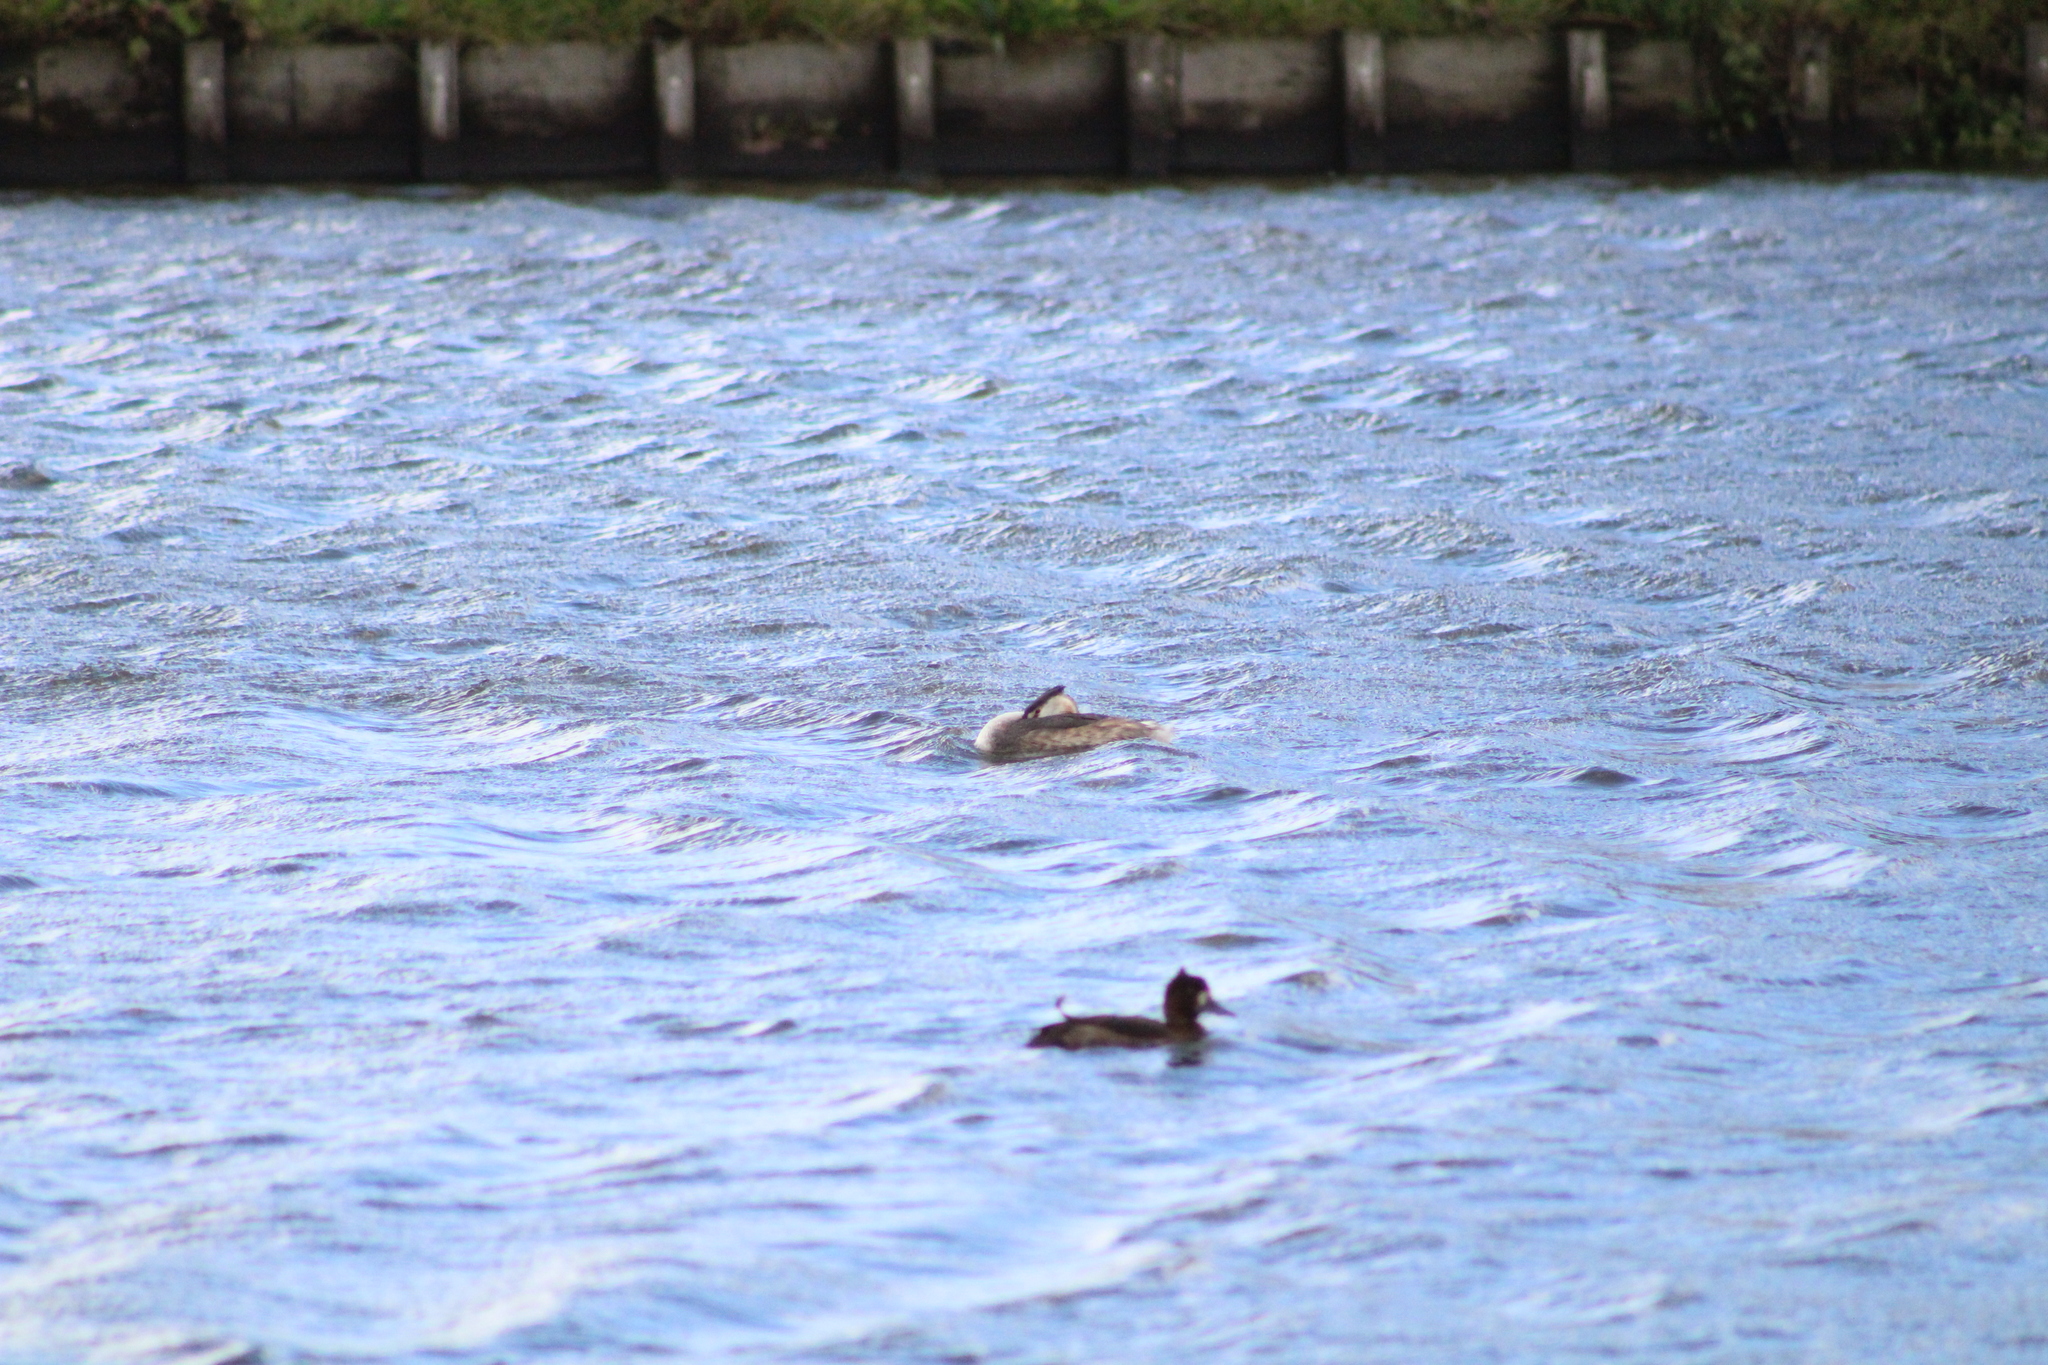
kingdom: Animalia
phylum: Chordata
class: Aves
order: Podicipediformes
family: Podicipedidae
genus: Podiceps
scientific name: Podiceps cristatus
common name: Great crested grebe
